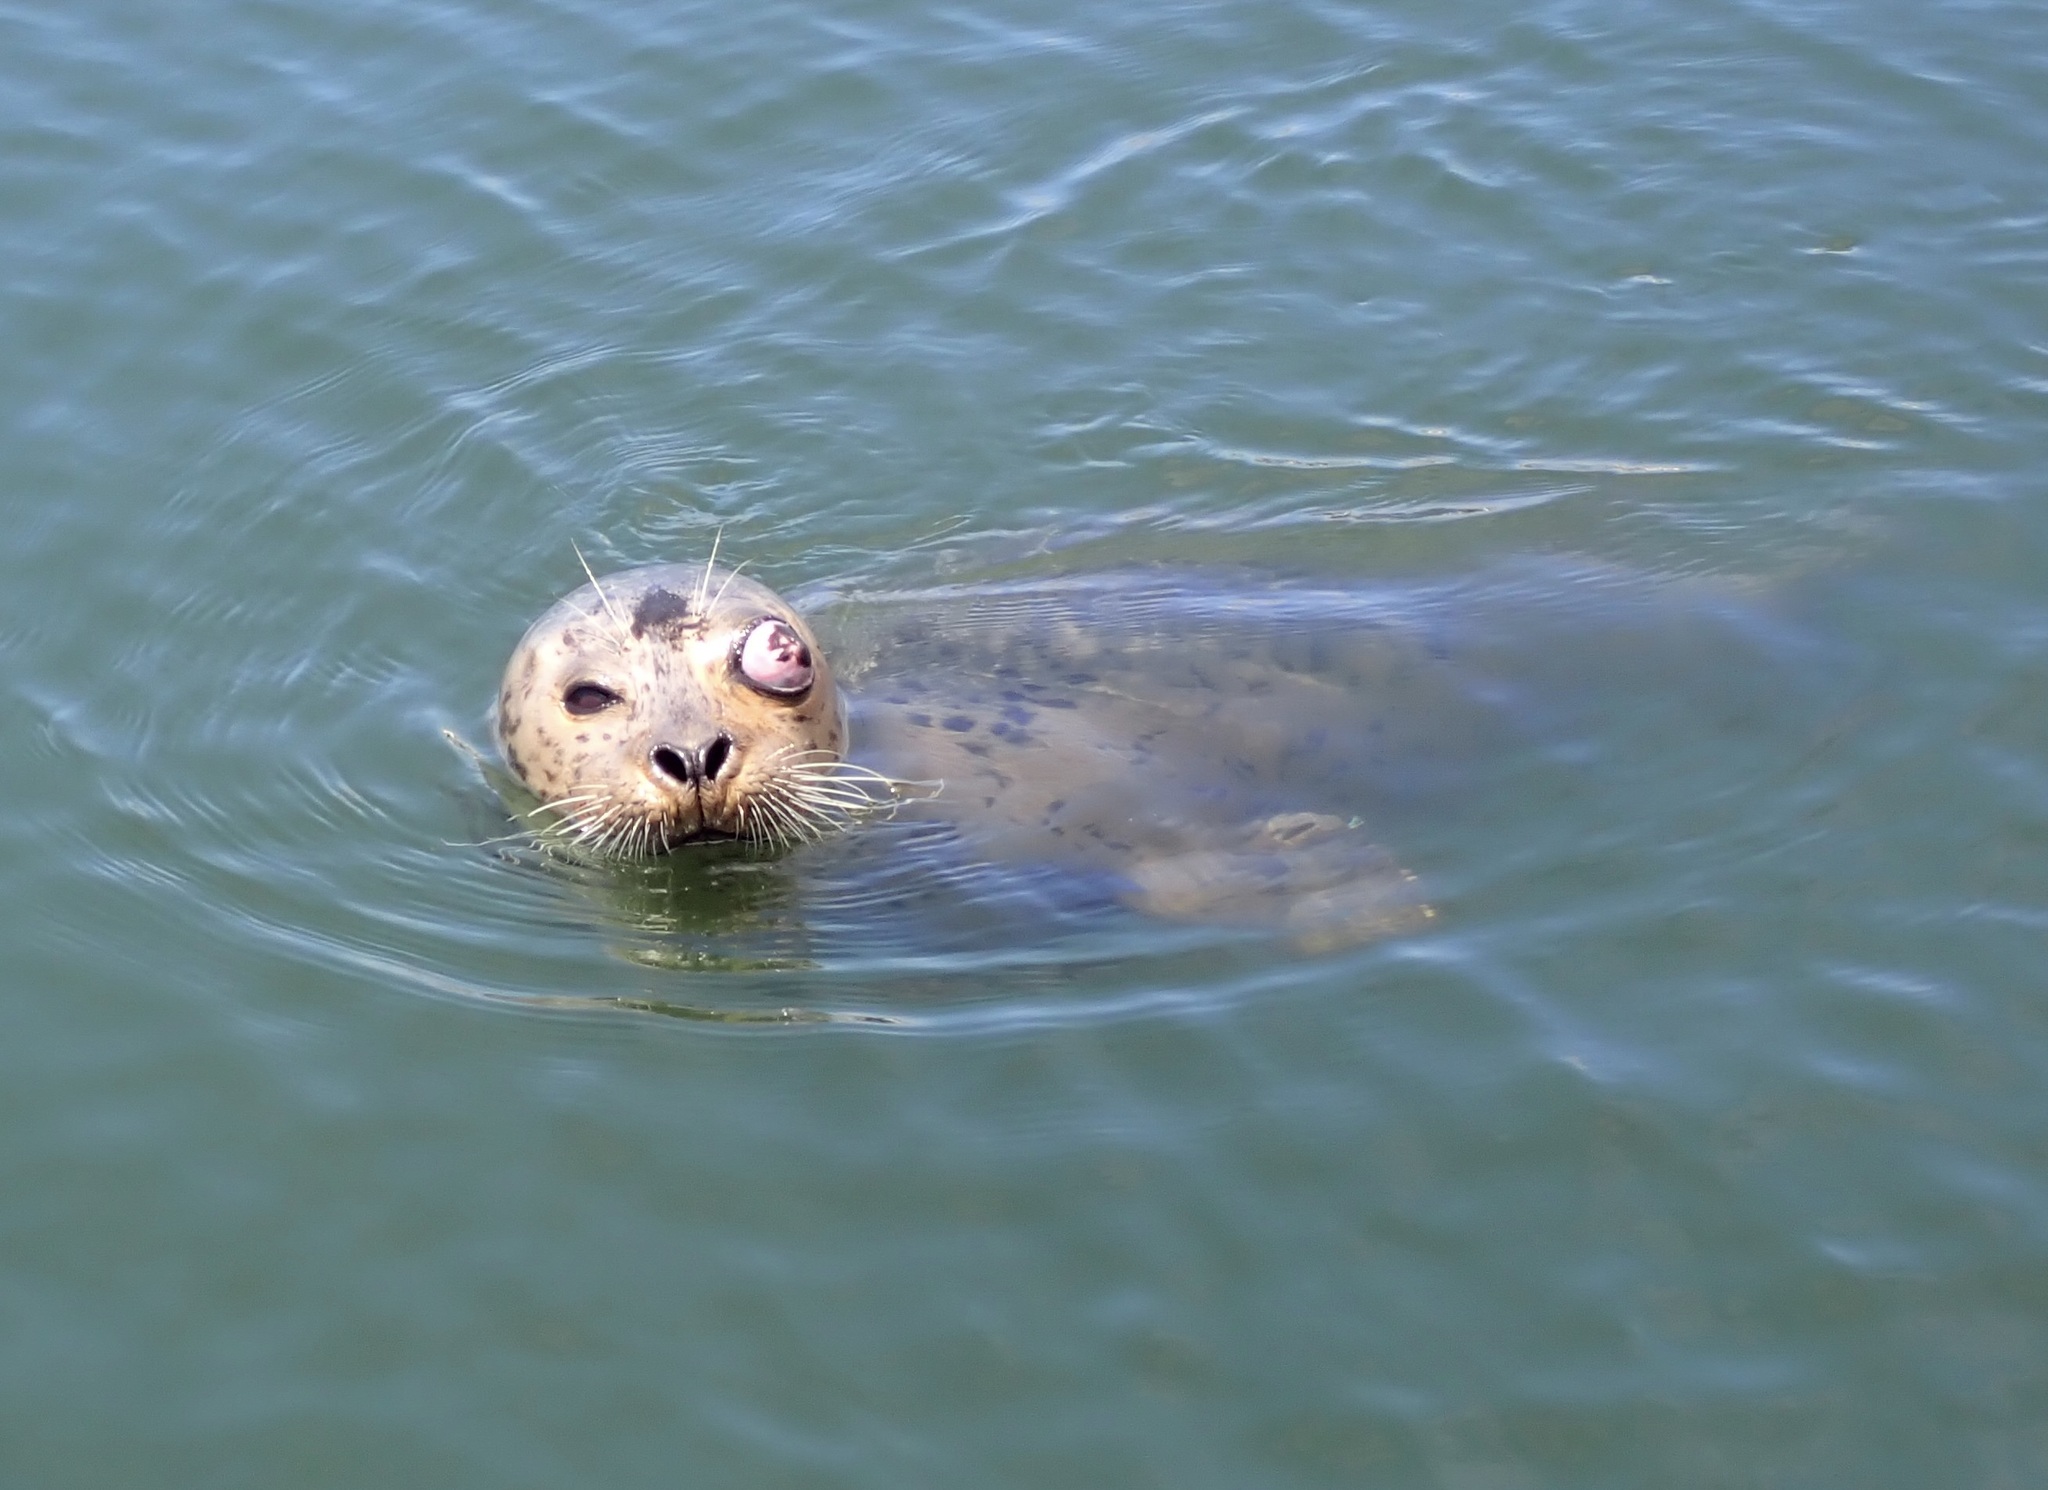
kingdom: Animalia
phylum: Chordata
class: Mammalia
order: Carnivora
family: Phocidae
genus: Phoca
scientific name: Phoca vitulina
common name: Harbor seal
